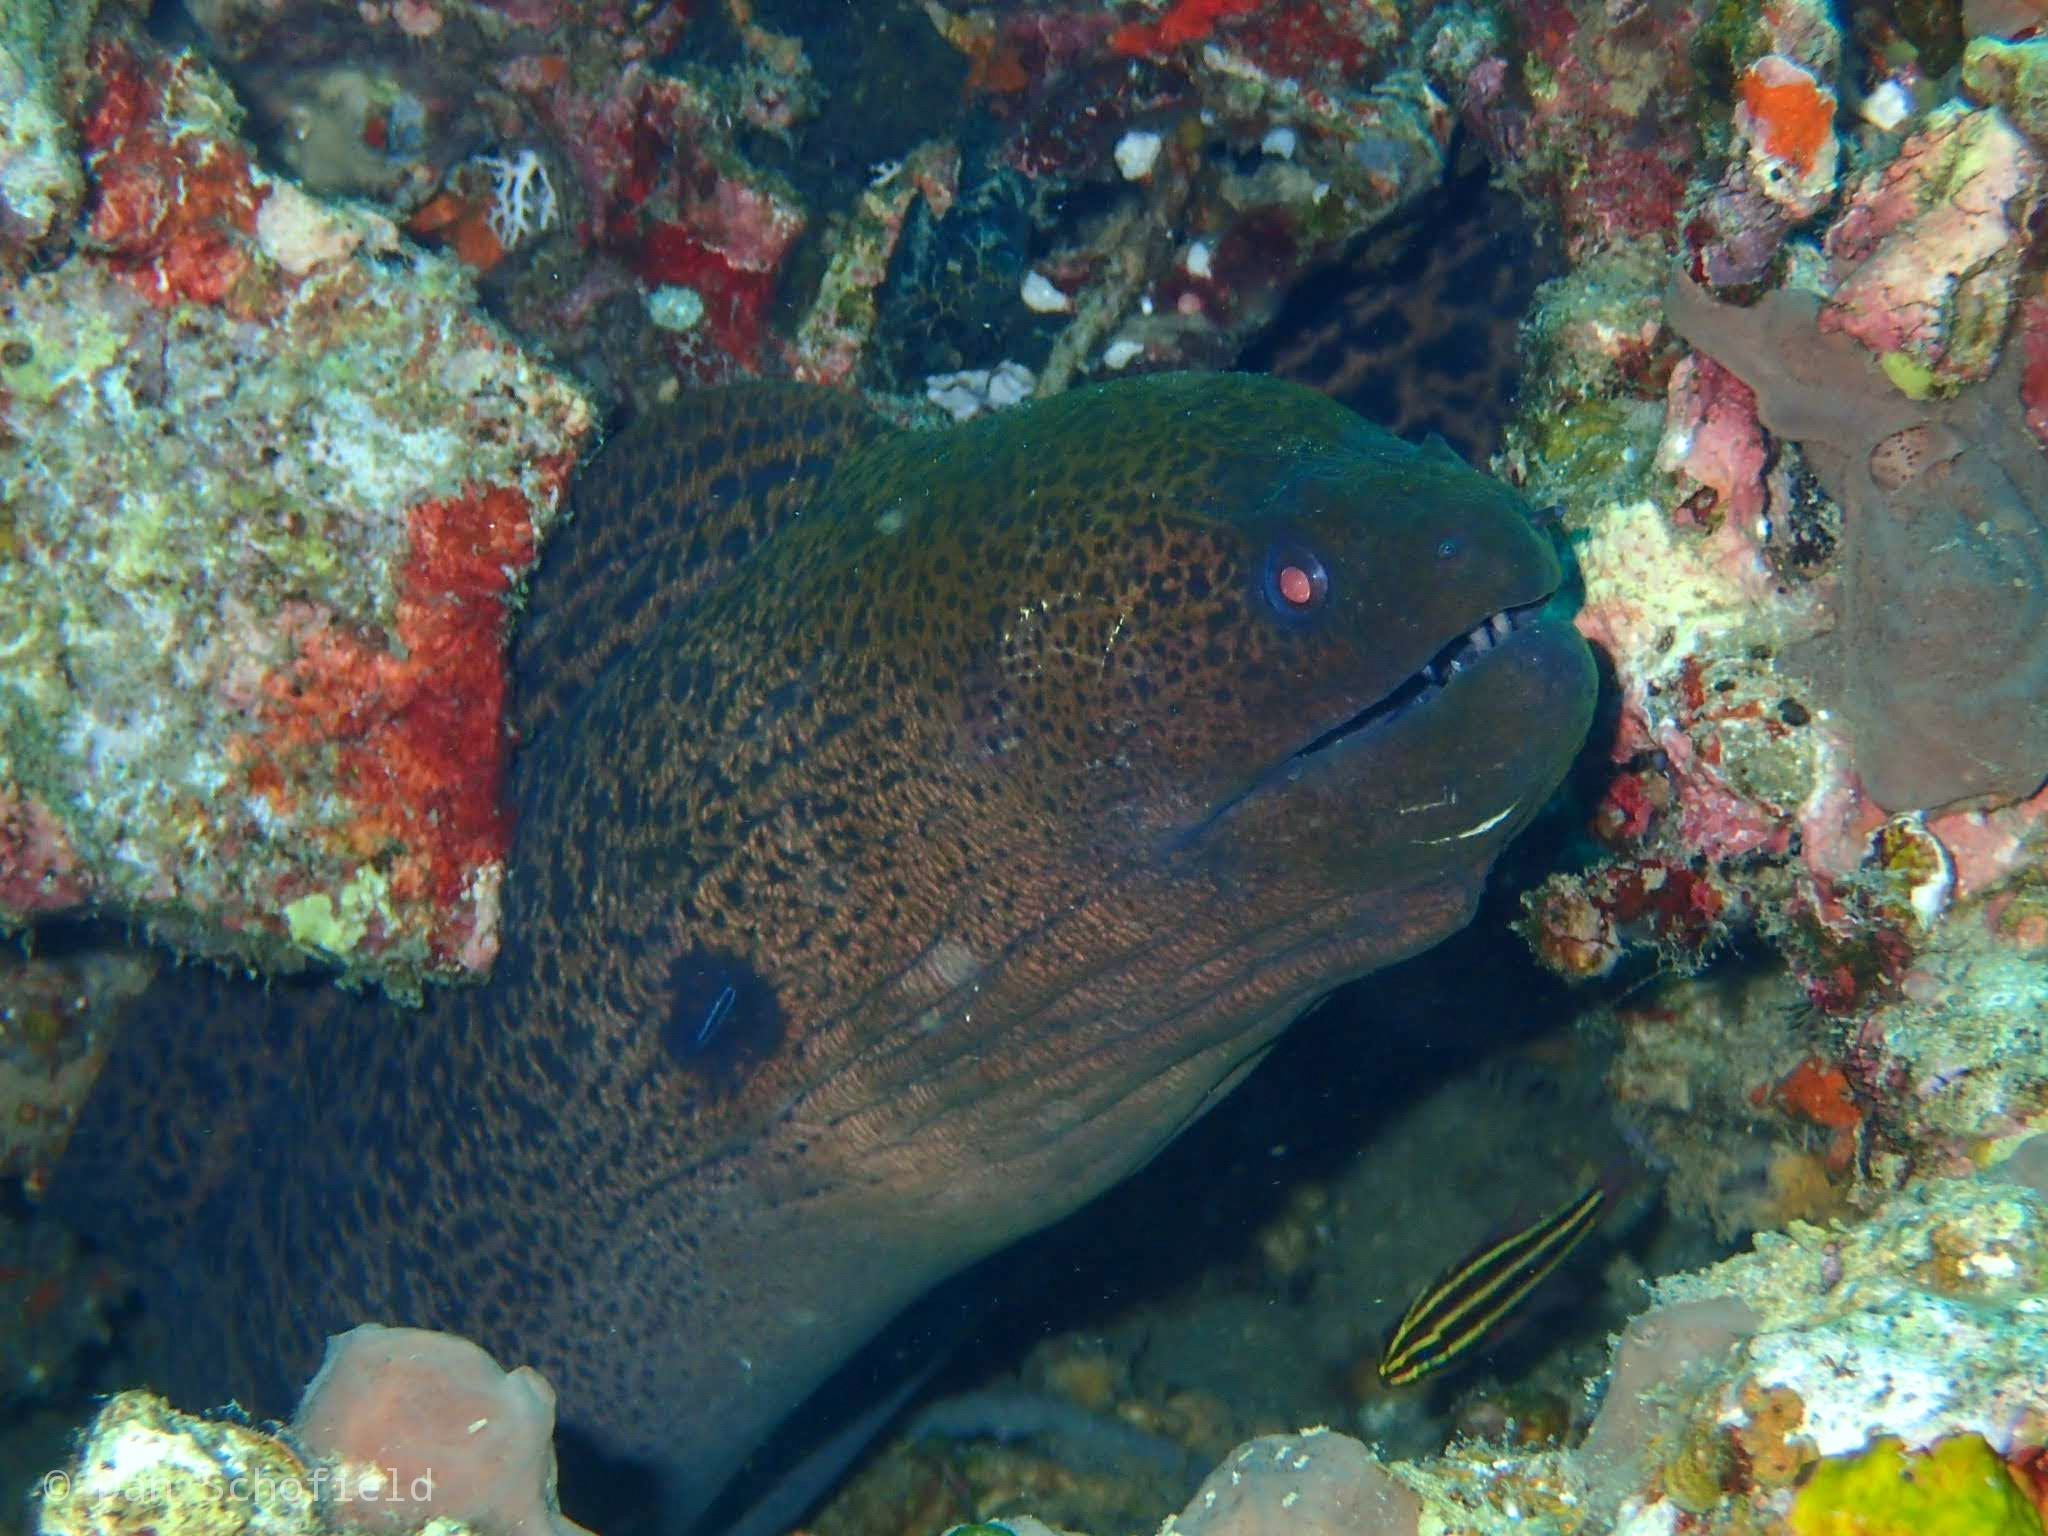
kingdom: Animalia
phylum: Chordata
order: Anguilliformes
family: Muraenidae
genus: Gymnothorax
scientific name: Gymnothorax javanicus
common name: Giant moray
